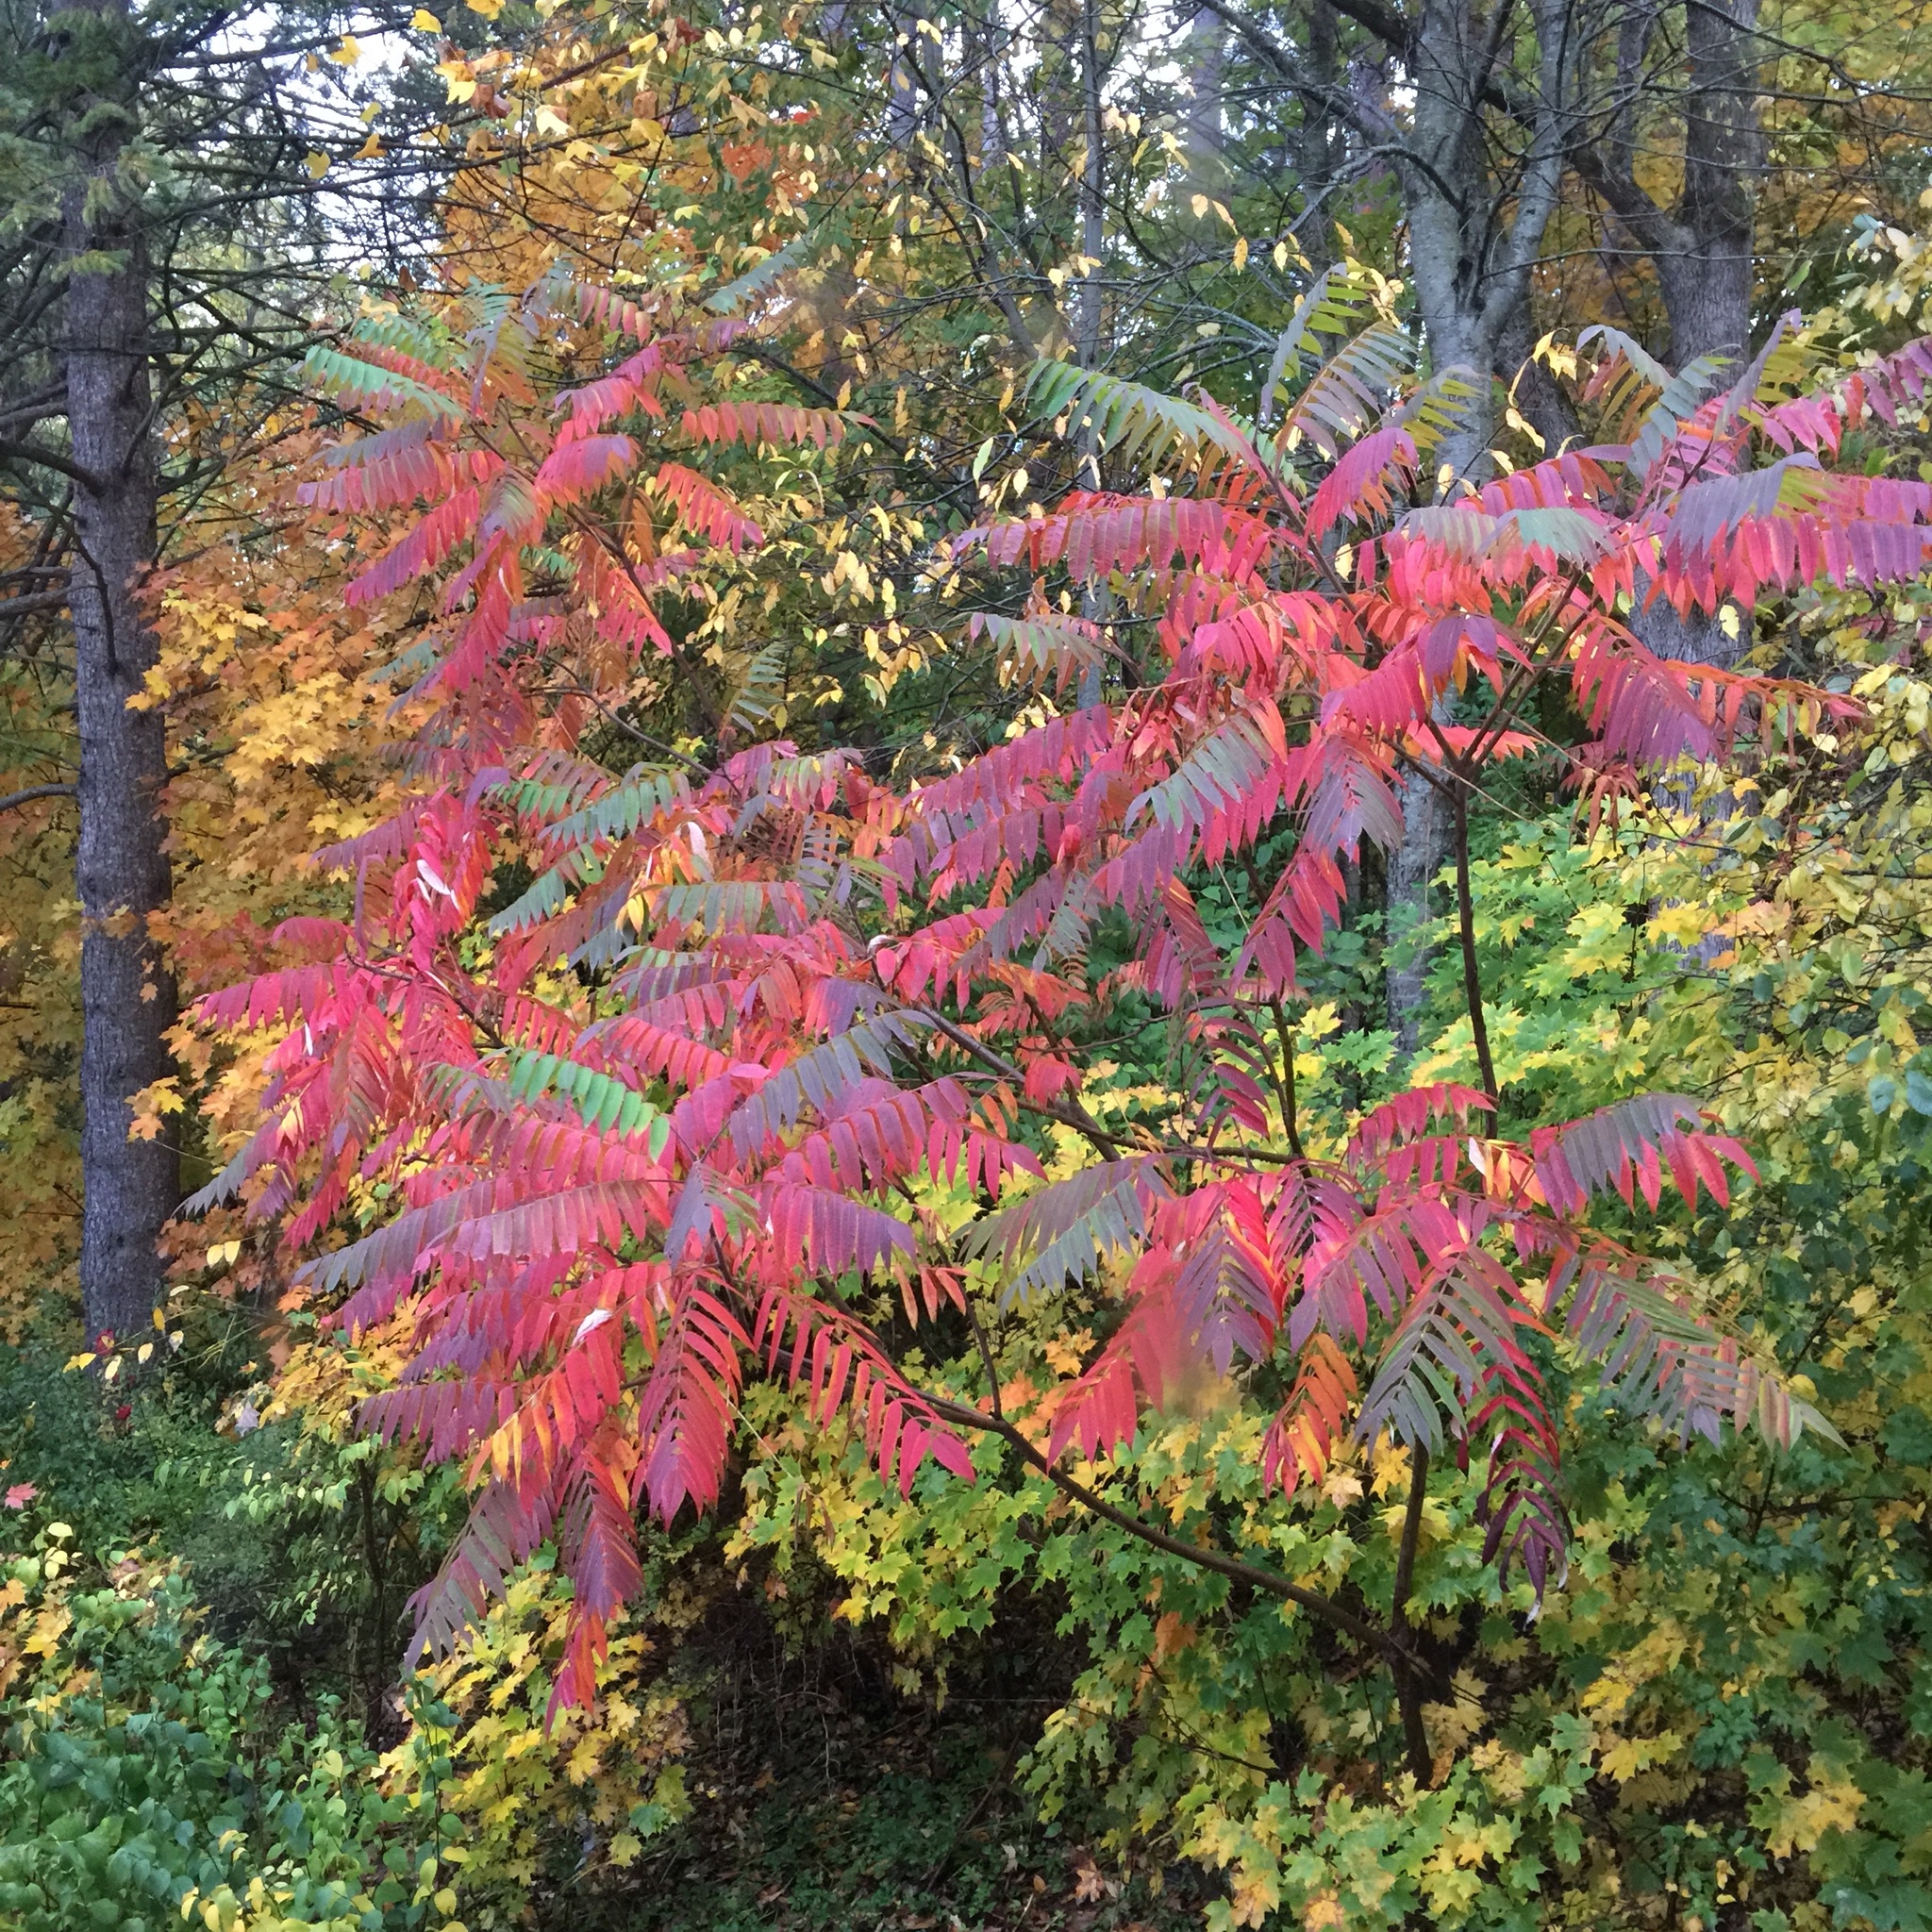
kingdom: Plantae
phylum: Tracheophyta
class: Magnoliopsida
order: Sapindales
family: Anacardiaceae
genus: Rhus
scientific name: Rhus typhina
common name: Staghorn sumac
